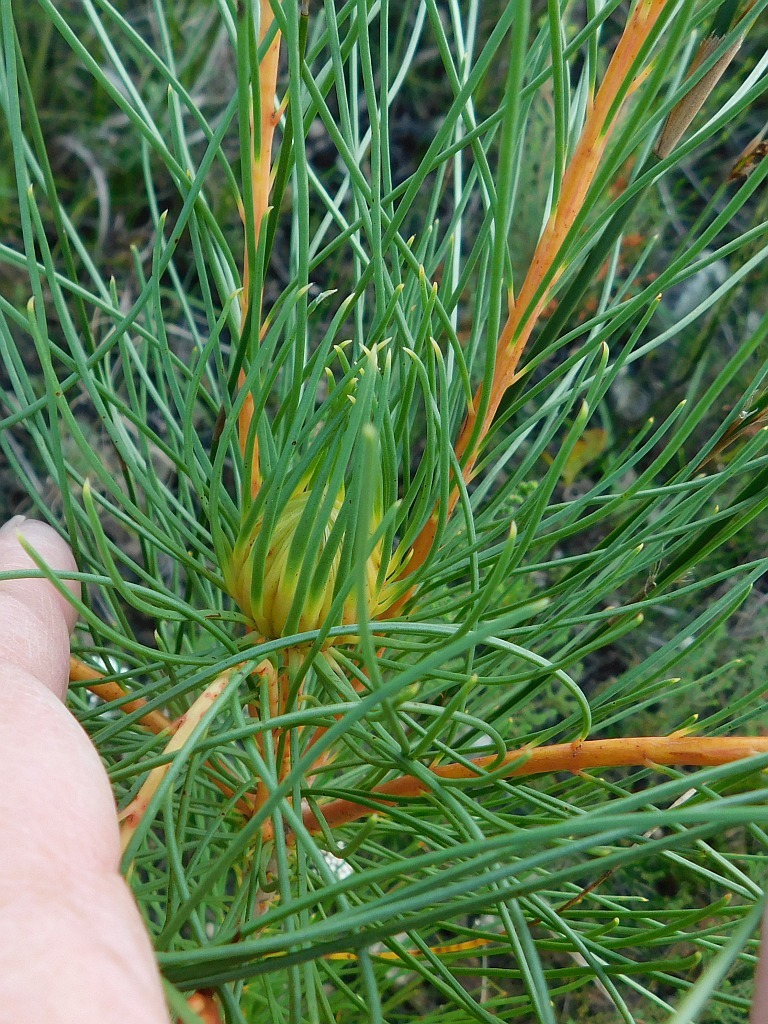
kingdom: Plantae
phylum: Tracheophyta
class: Magnoliopsida
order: Proteales
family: Proteaceae
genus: Aulax
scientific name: Aulax cancellata
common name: Channel-leaf featherbush
